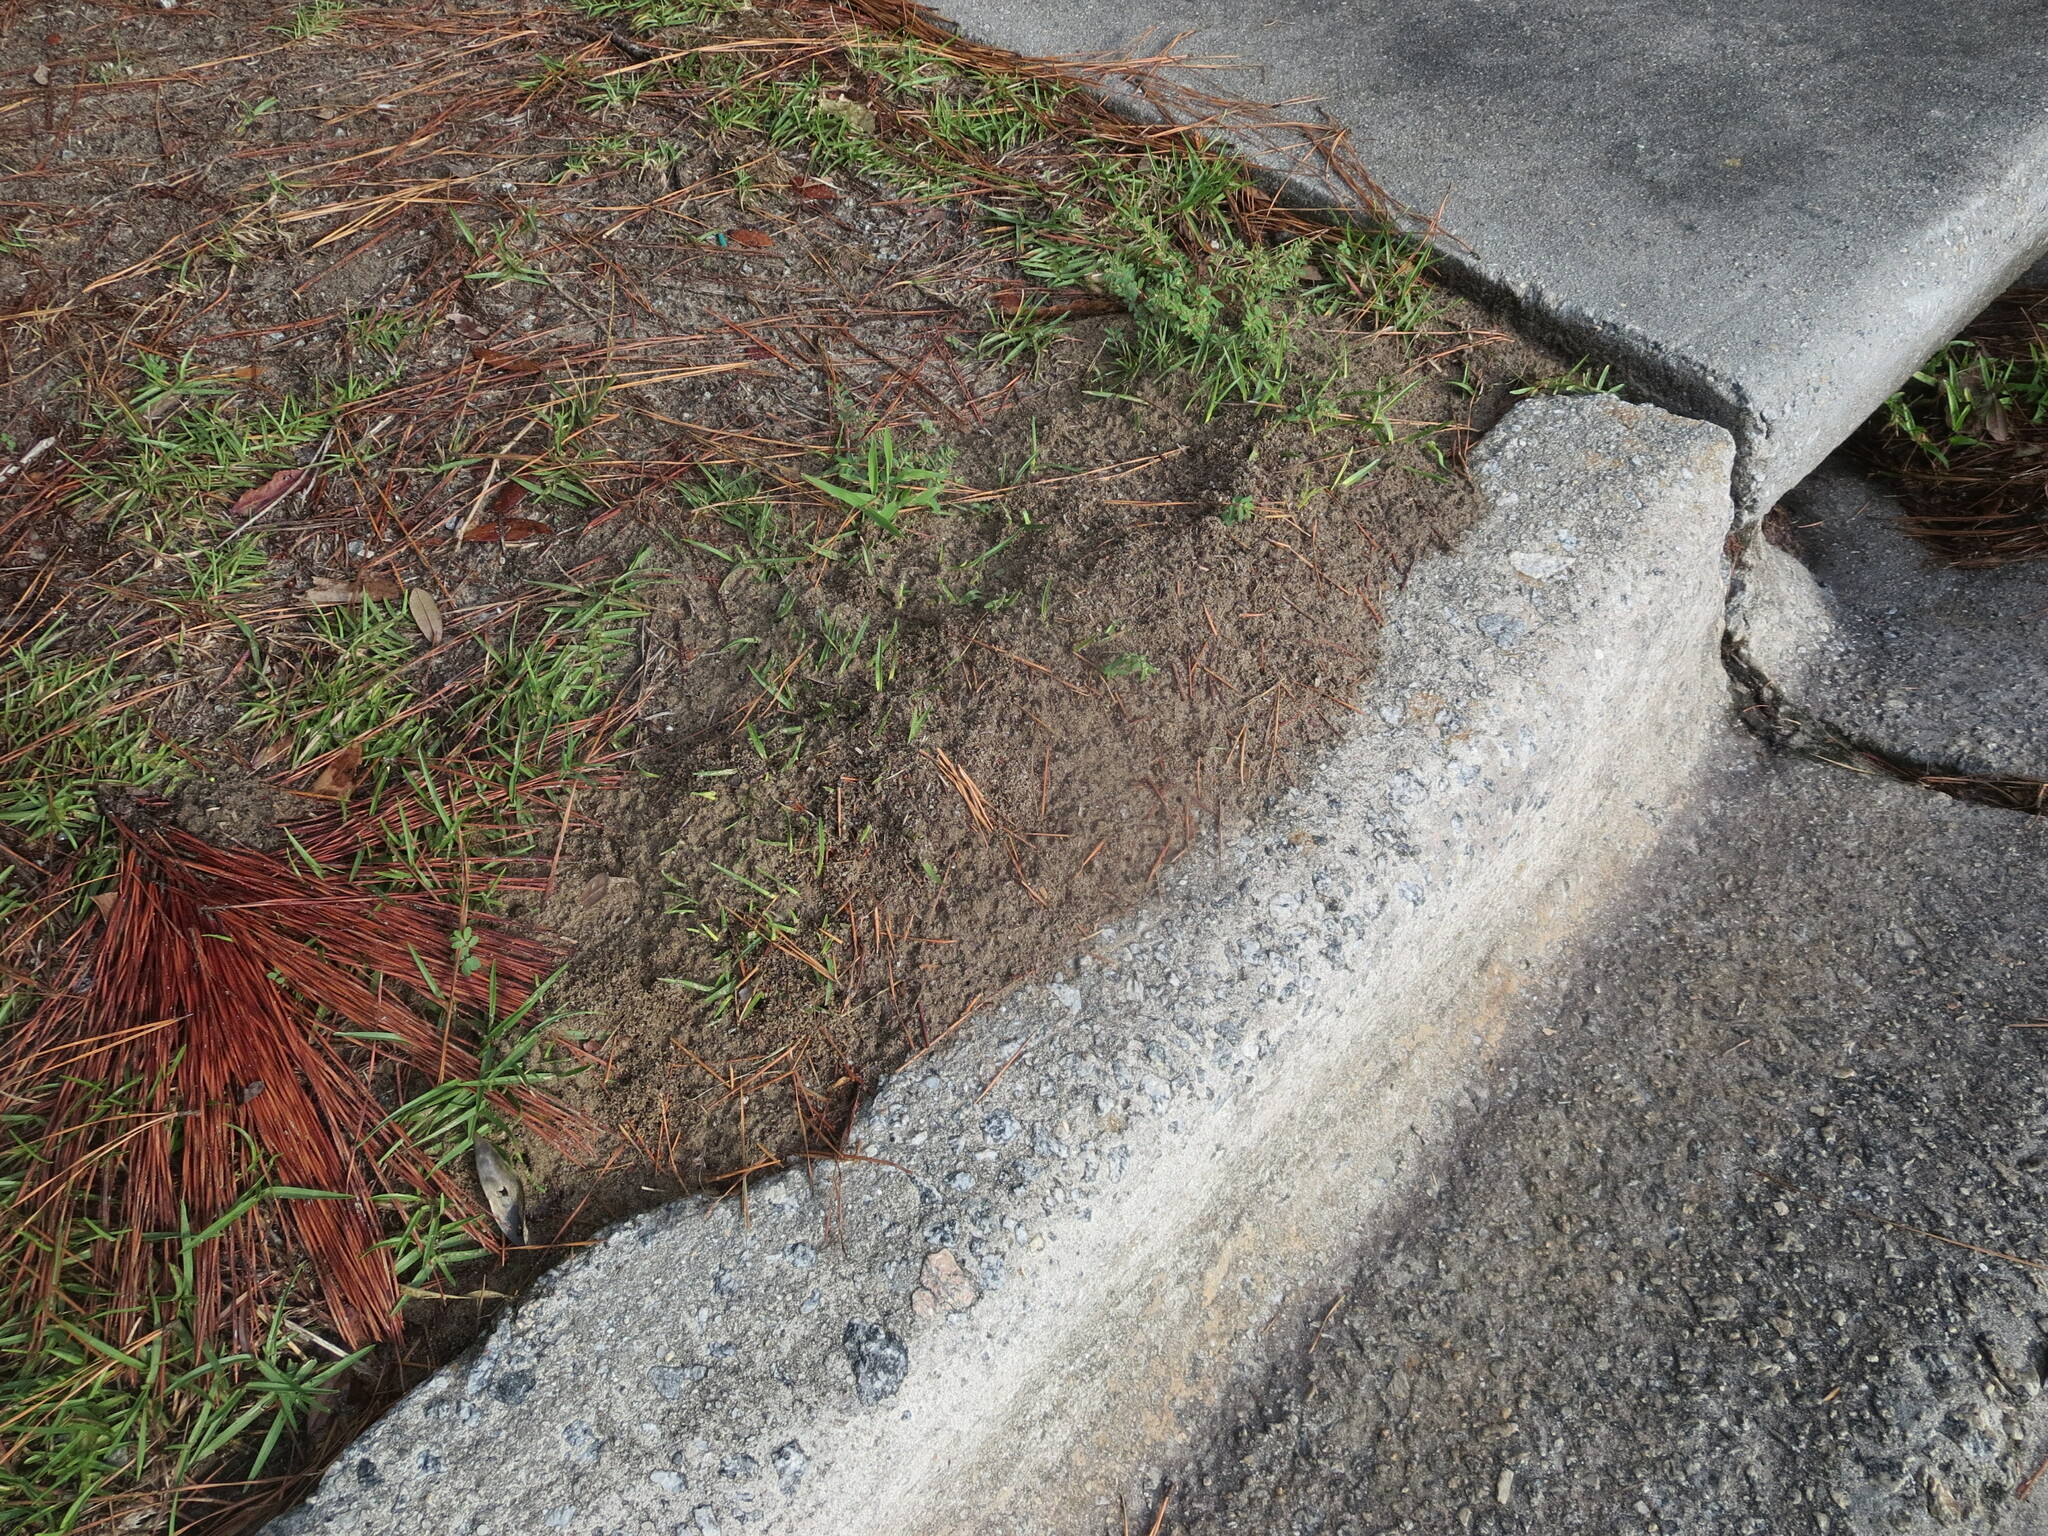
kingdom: Animalia
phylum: Arthropoda
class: Insecta
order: Hymenoptera
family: Formicidae
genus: Solenopsis
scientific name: Solenopsis invicta
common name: Red imported fire ant
